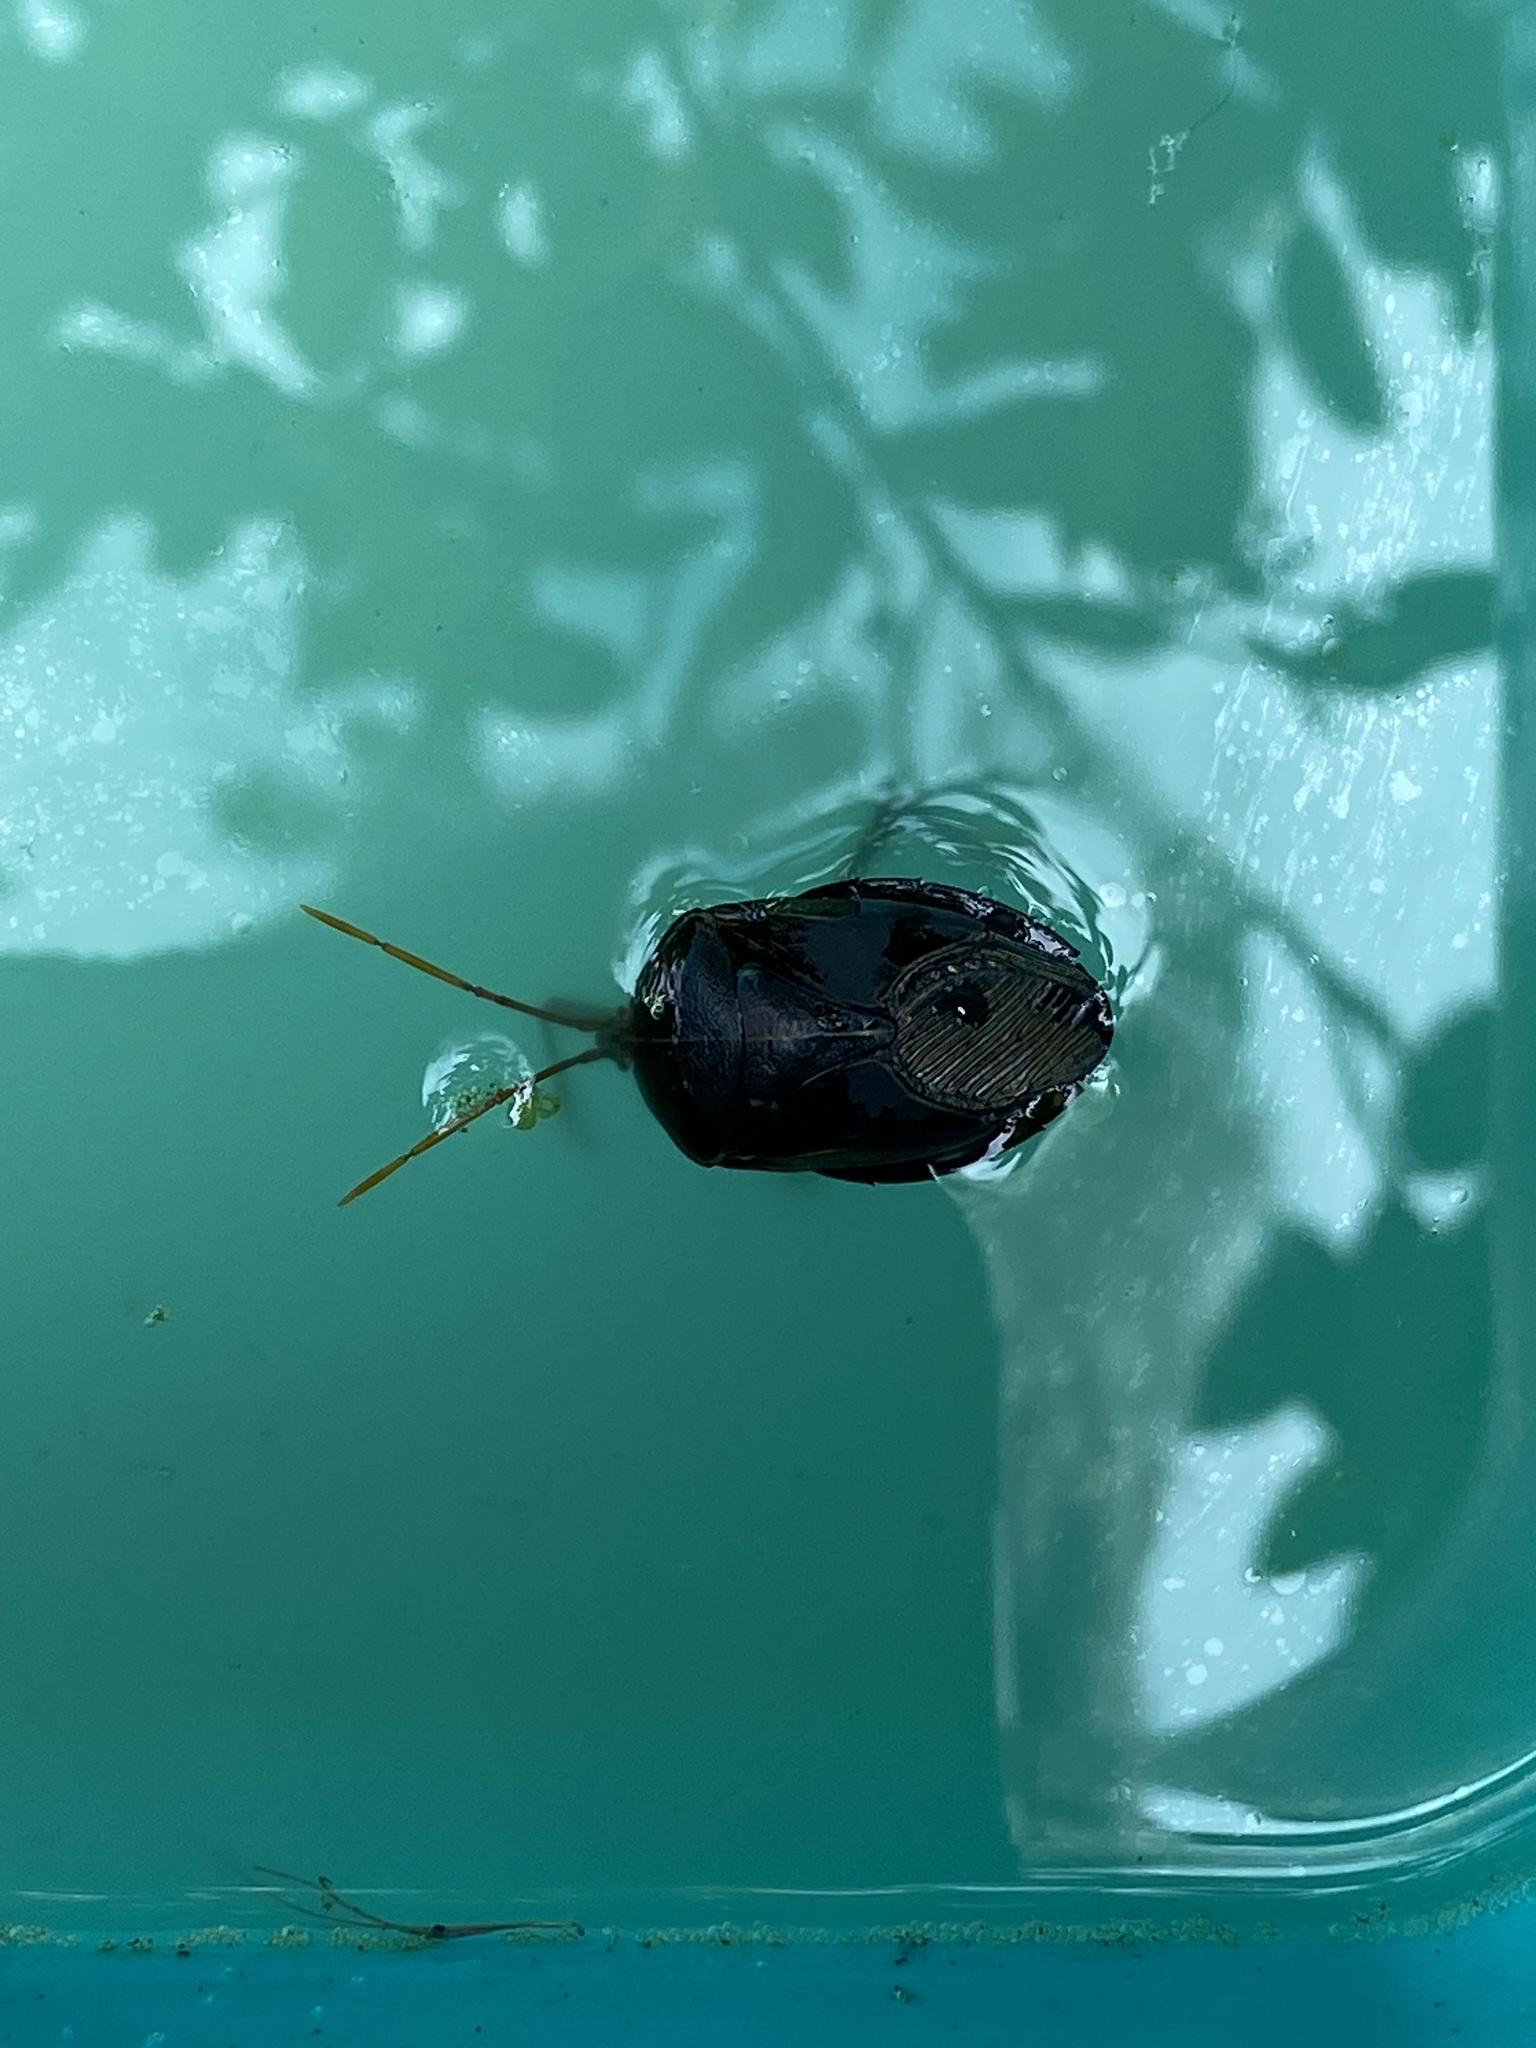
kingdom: Animalia
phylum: Arthropoda
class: Insecta
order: Hemiptera
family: Tessaratomidae
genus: Musgraveia
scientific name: Musgraveia sulciventris
